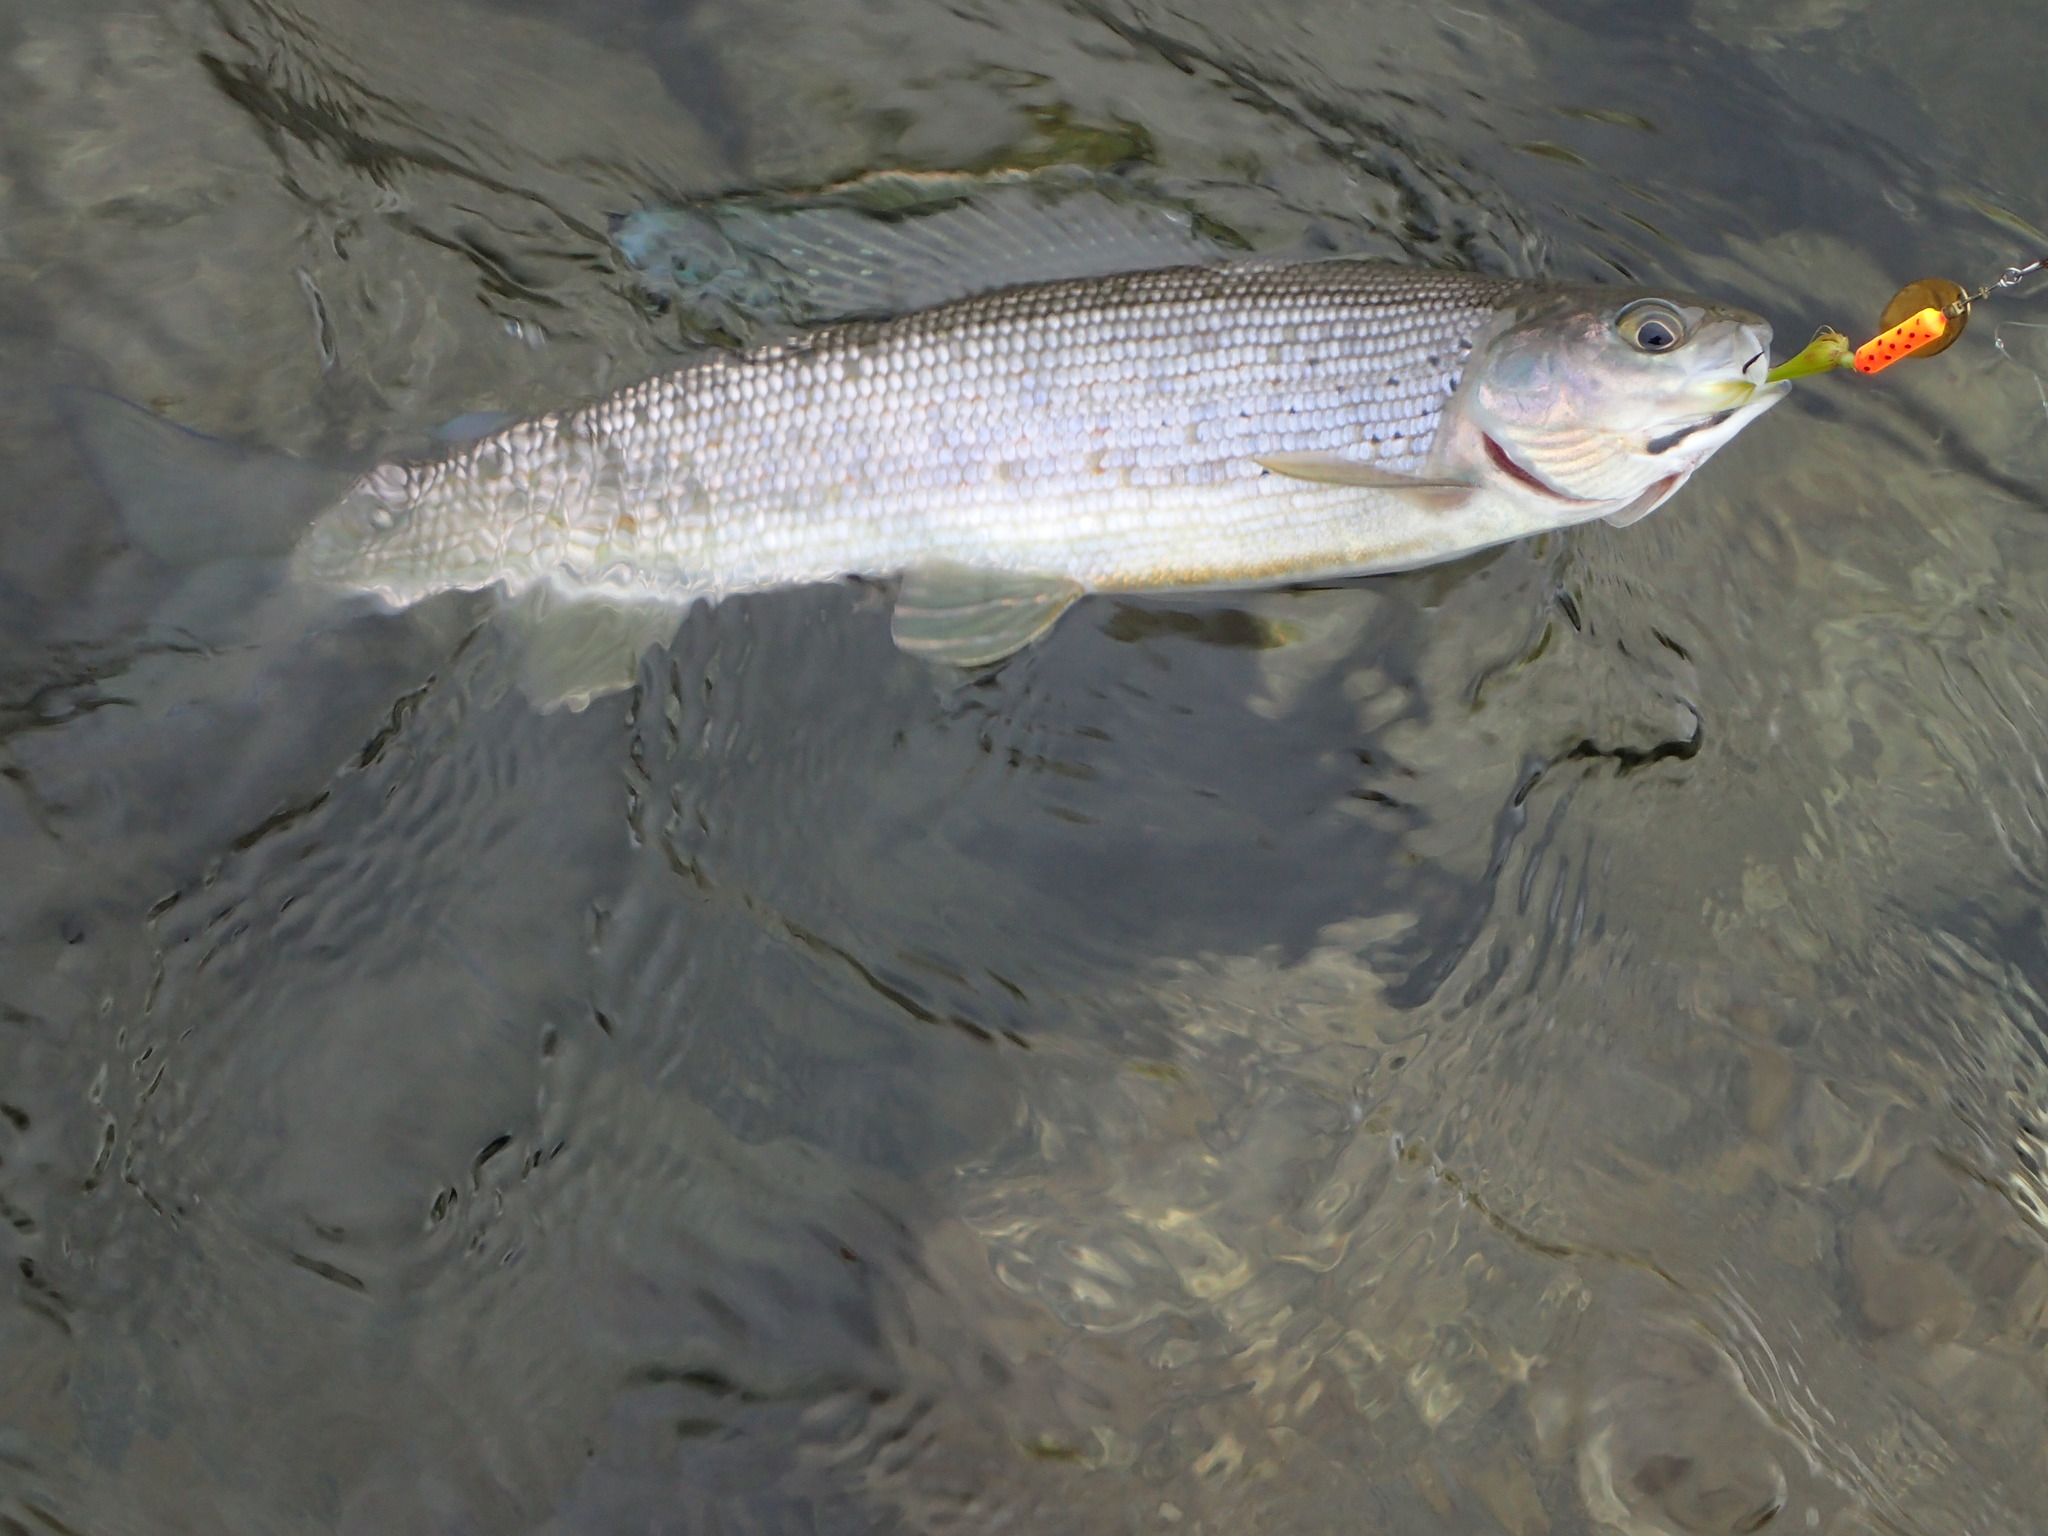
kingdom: Animalia
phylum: Chordata
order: Salmoniformes
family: Salmonidae
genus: Thymallus
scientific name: Thymallus arcticus
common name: Arctic grayling
